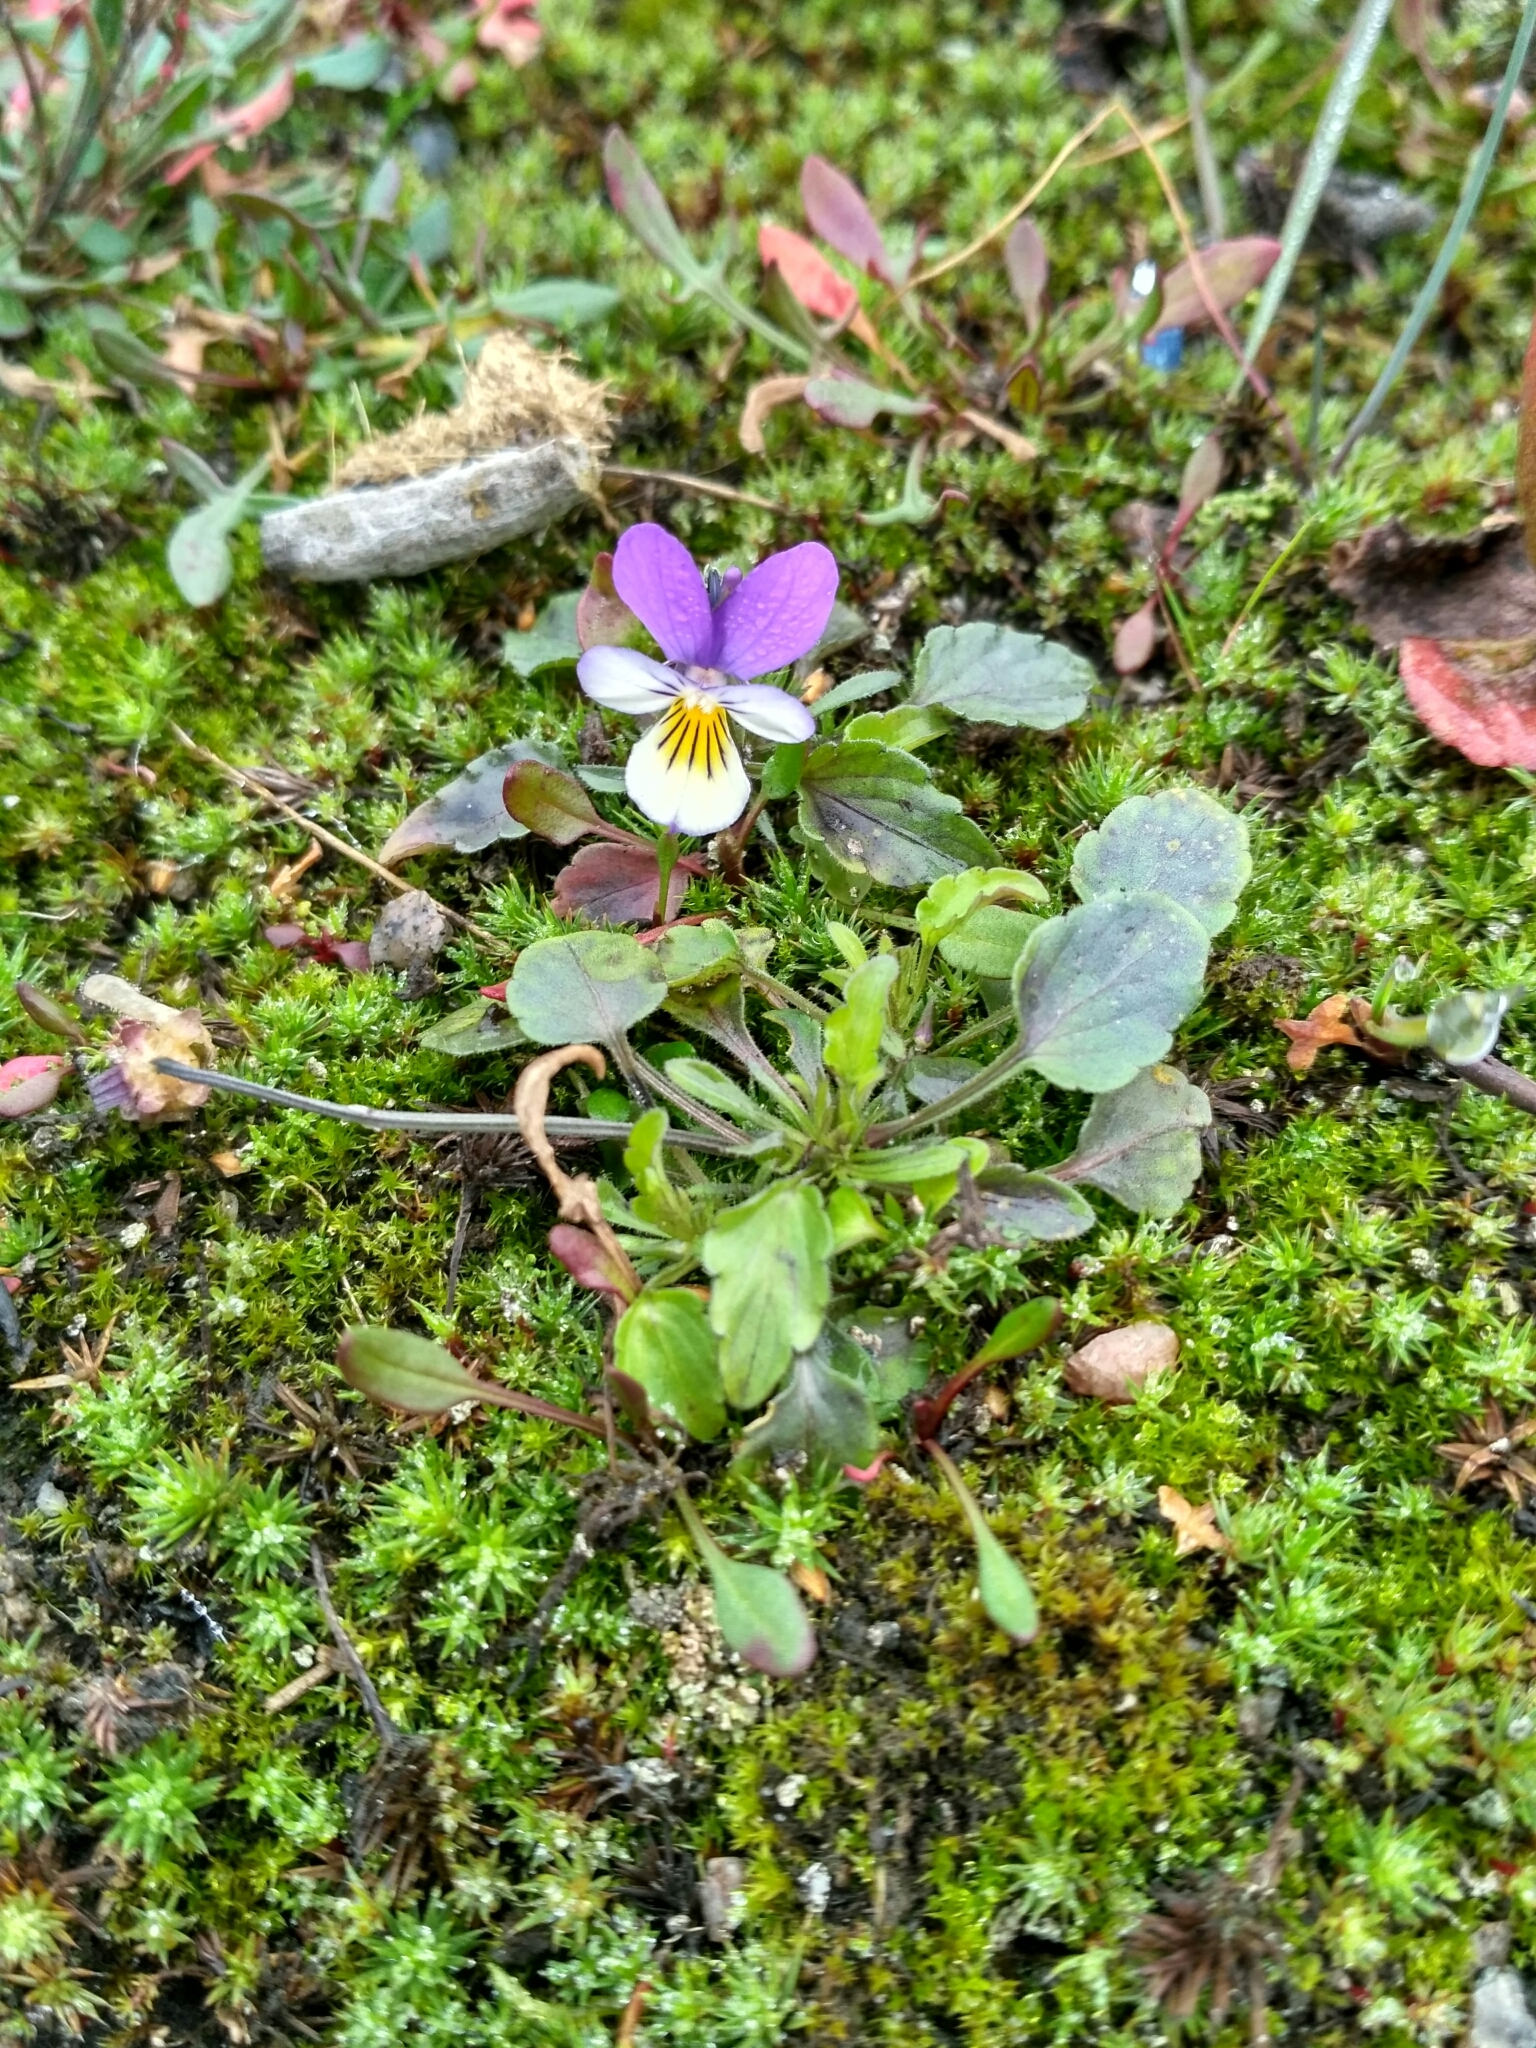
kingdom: Plantae
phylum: Tracheophyta
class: Magnoliopsida
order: Malpighiales
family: Violaceae
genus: Viola
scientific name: Viola tricolor
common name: Pansy
